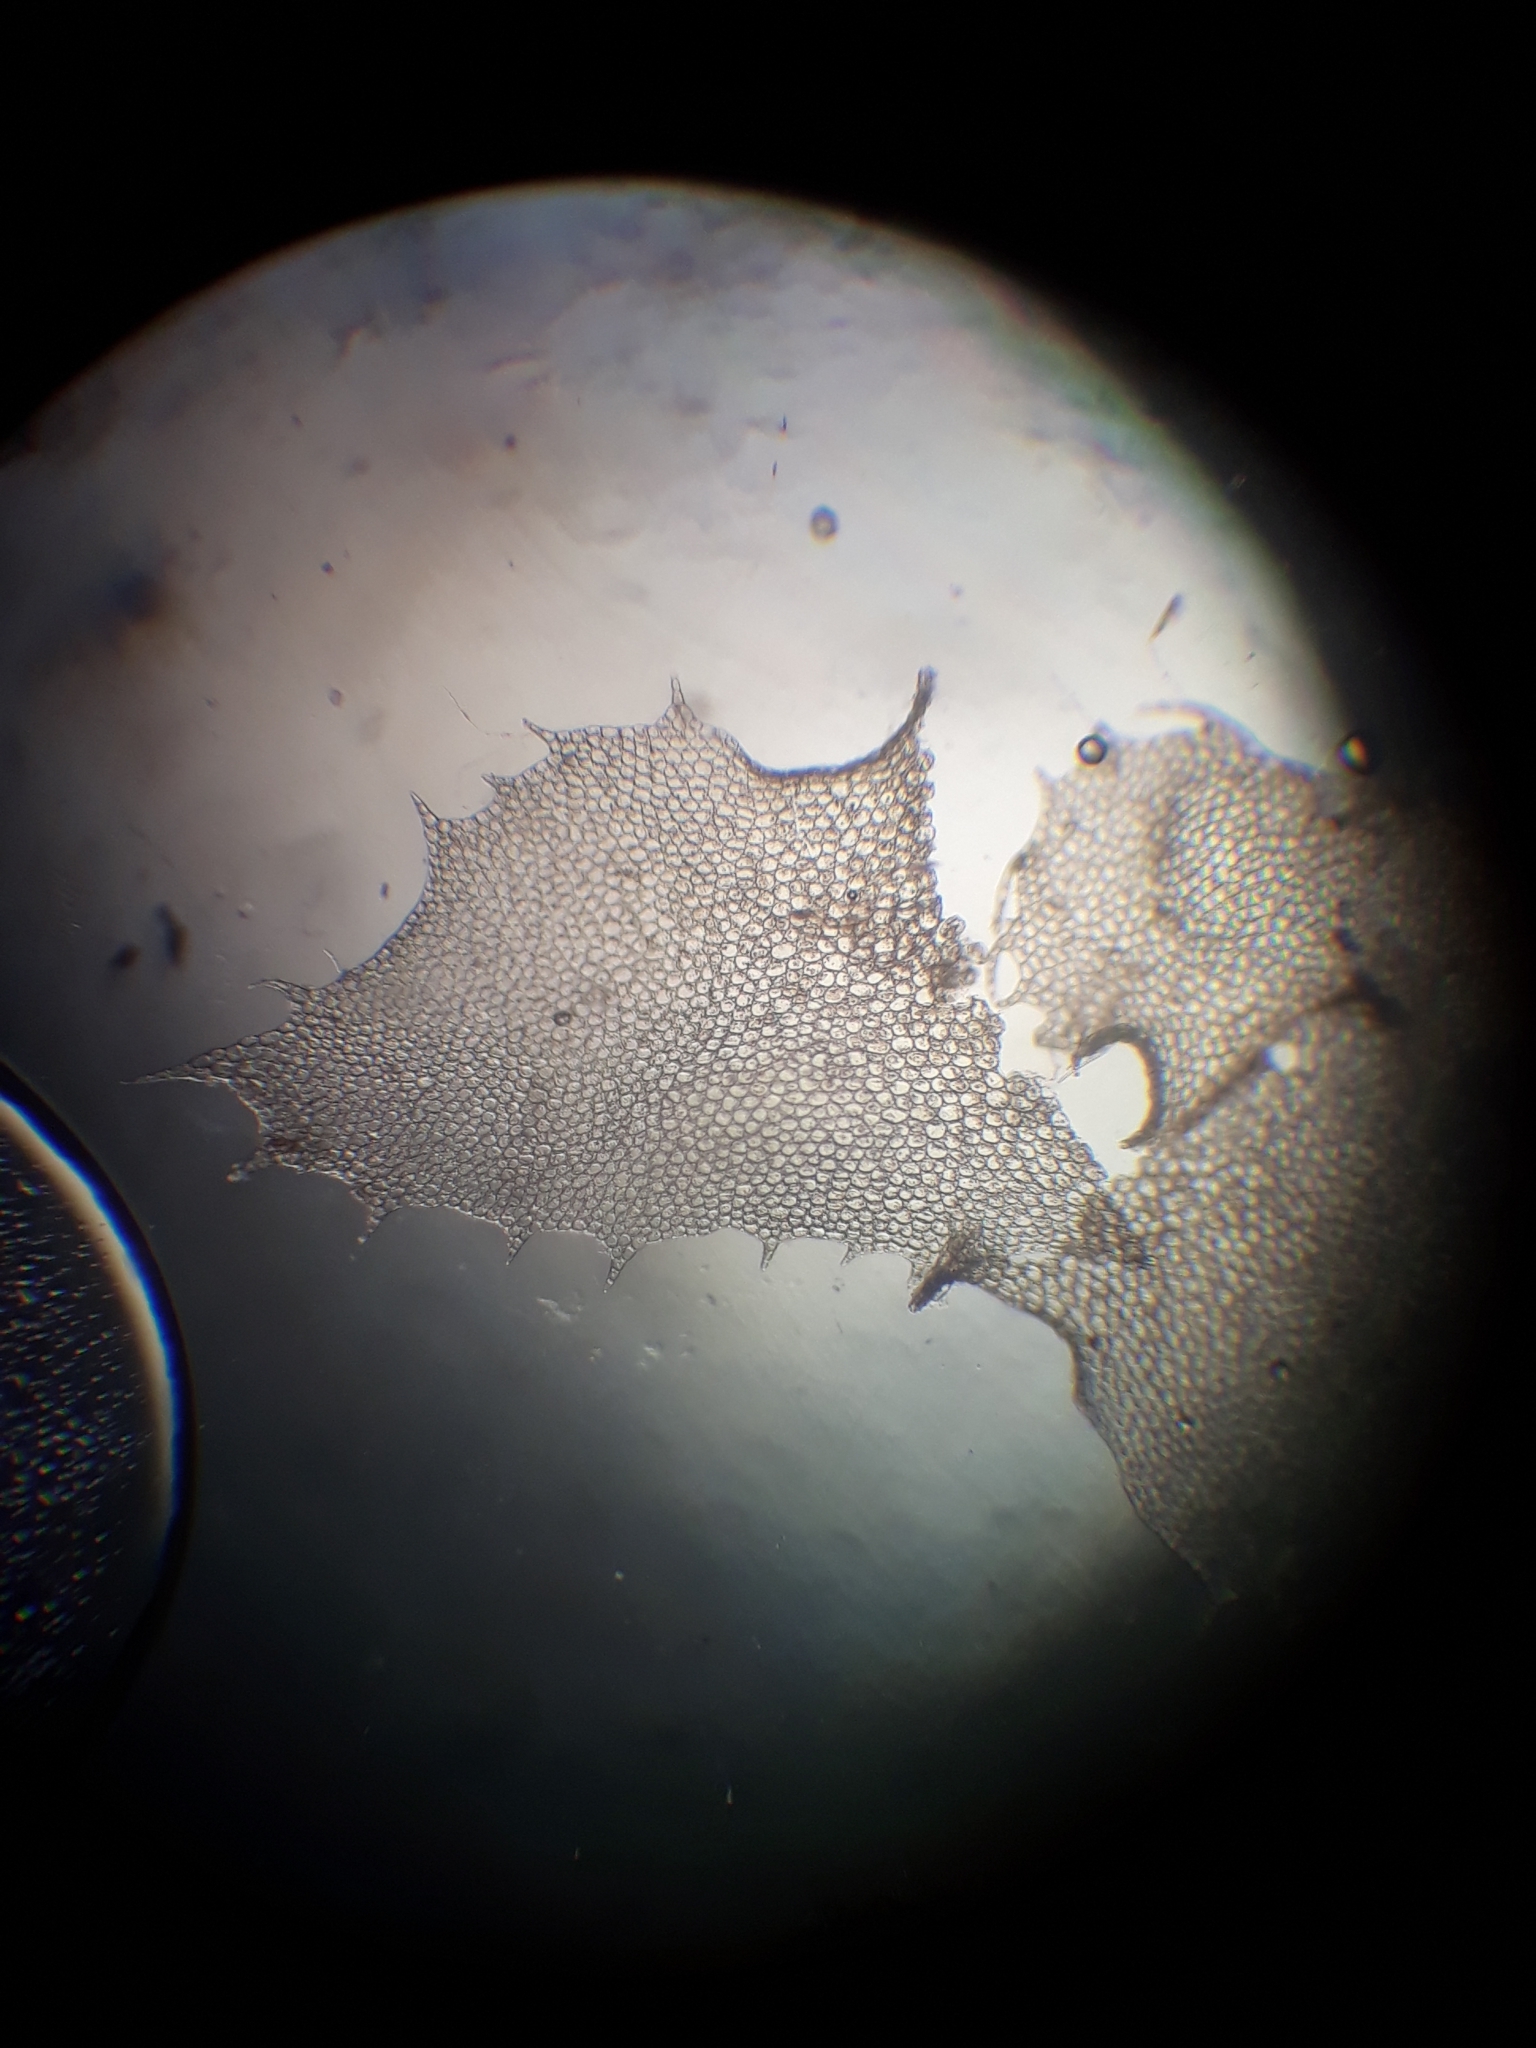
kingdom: Plantae
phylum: Marchantiophyta
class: Jungermanniopsida
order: Jungermanniales
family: Lophocoleaceae
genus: Heteroscyphus
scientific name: Heteroscyphus ciliatus
